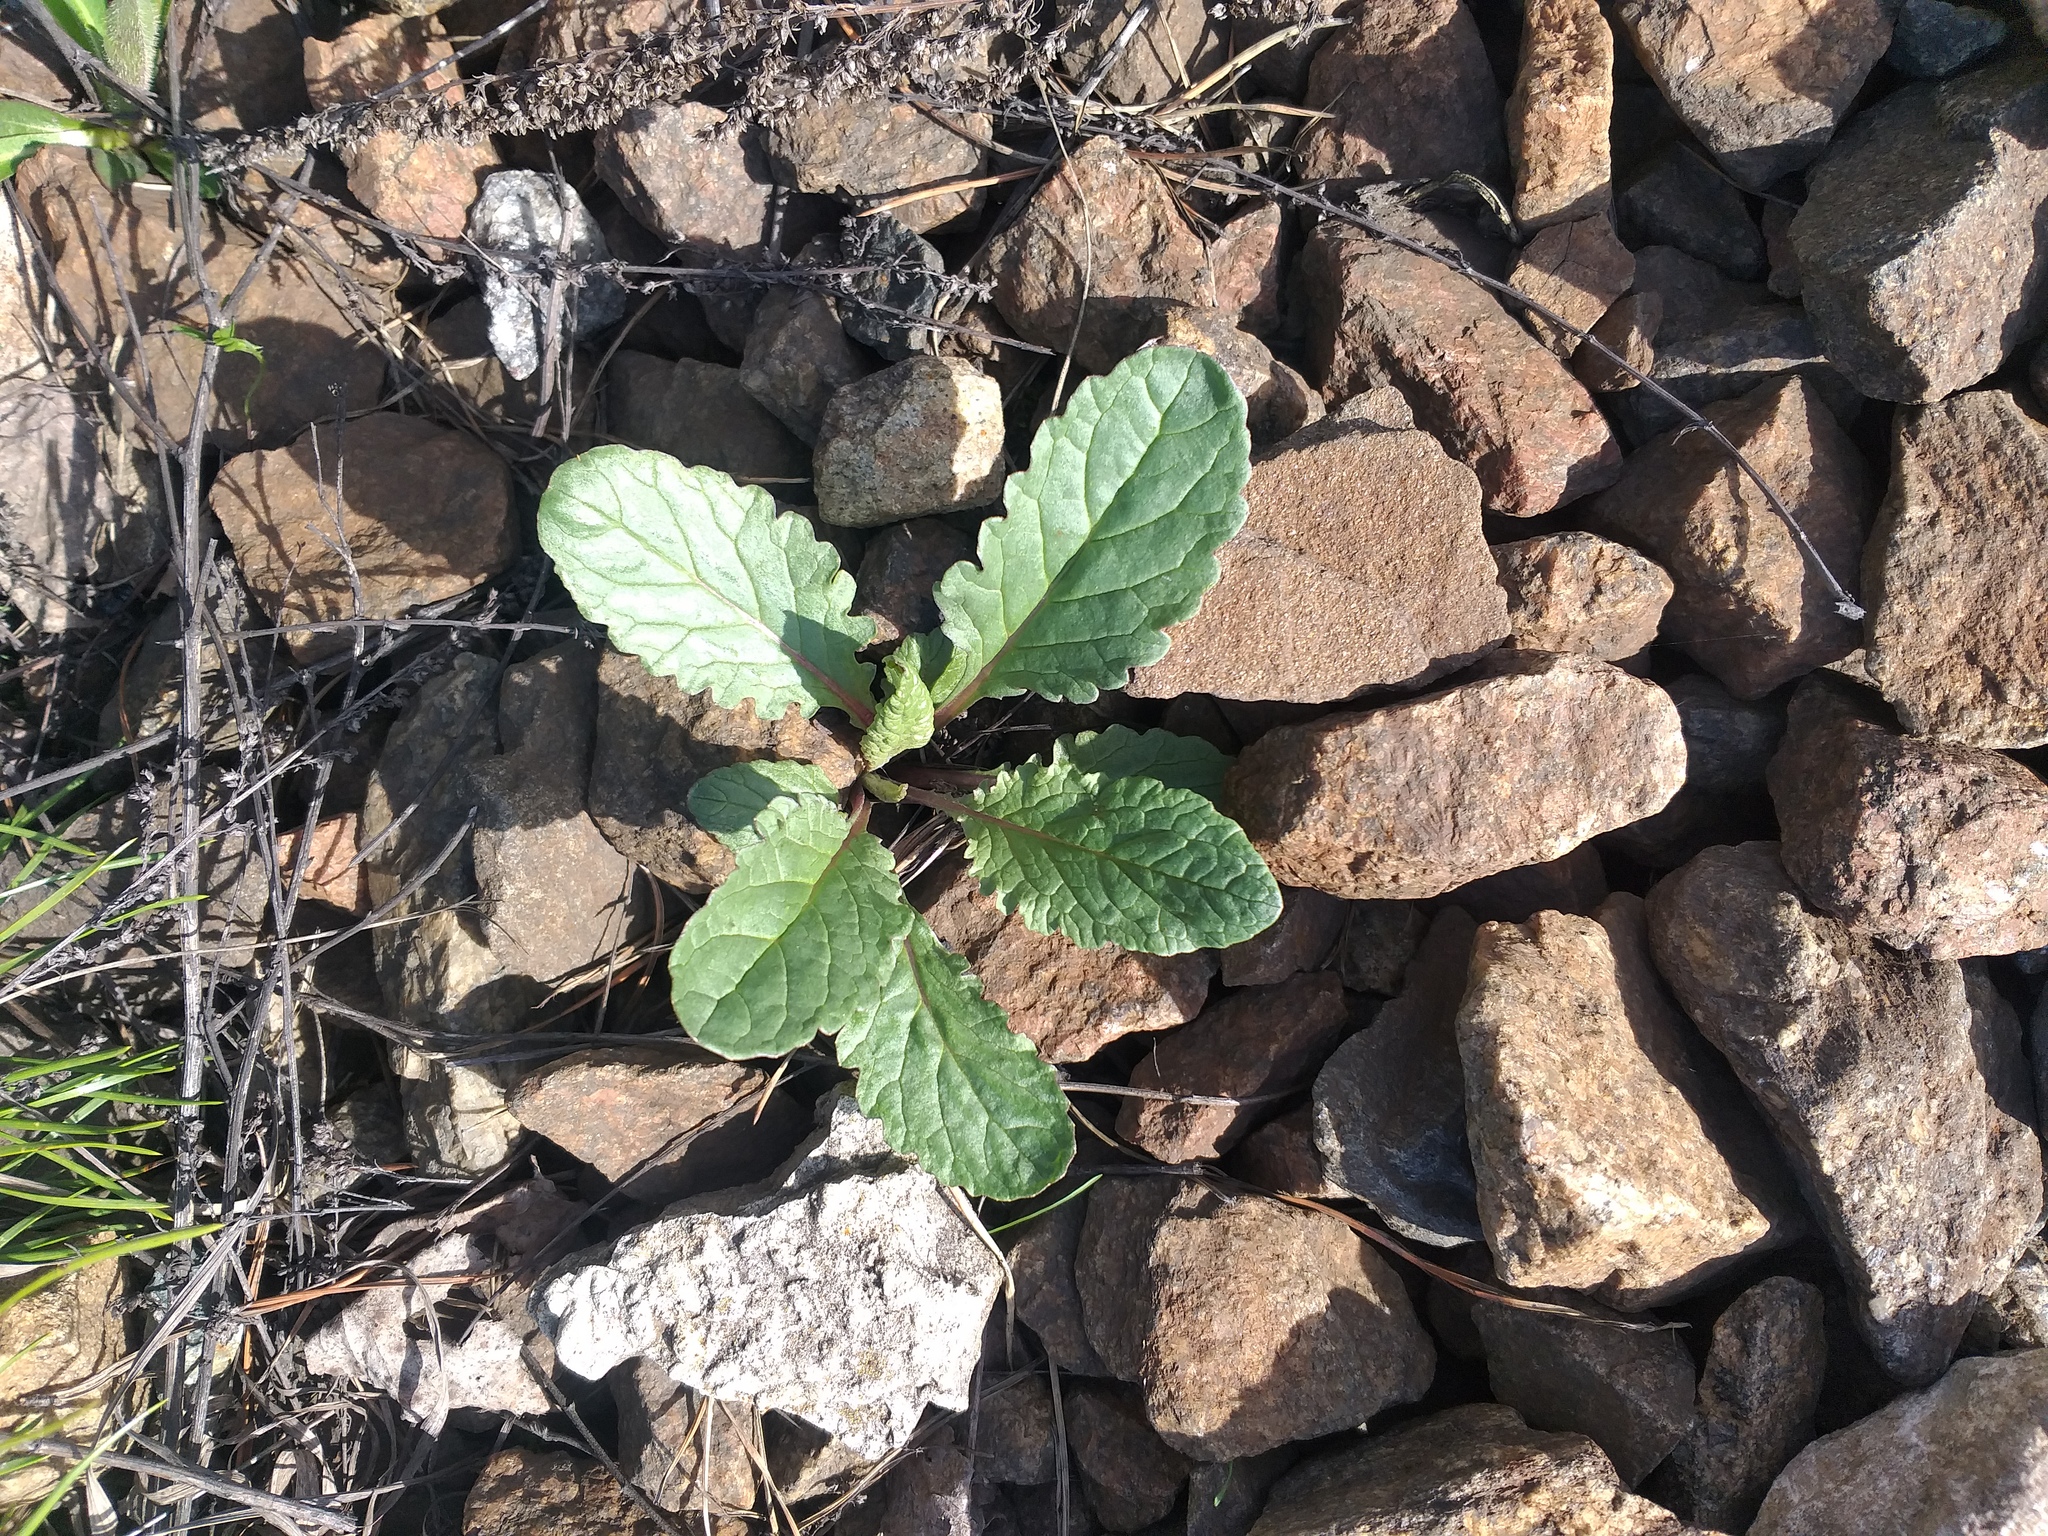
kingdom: Plantae
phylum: Tracheophyta
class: Magnoliopsida
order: Asterales
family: Asteraceae
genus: Jacobaea
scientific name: Jacobaea vulgaris
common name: Stinking willie
